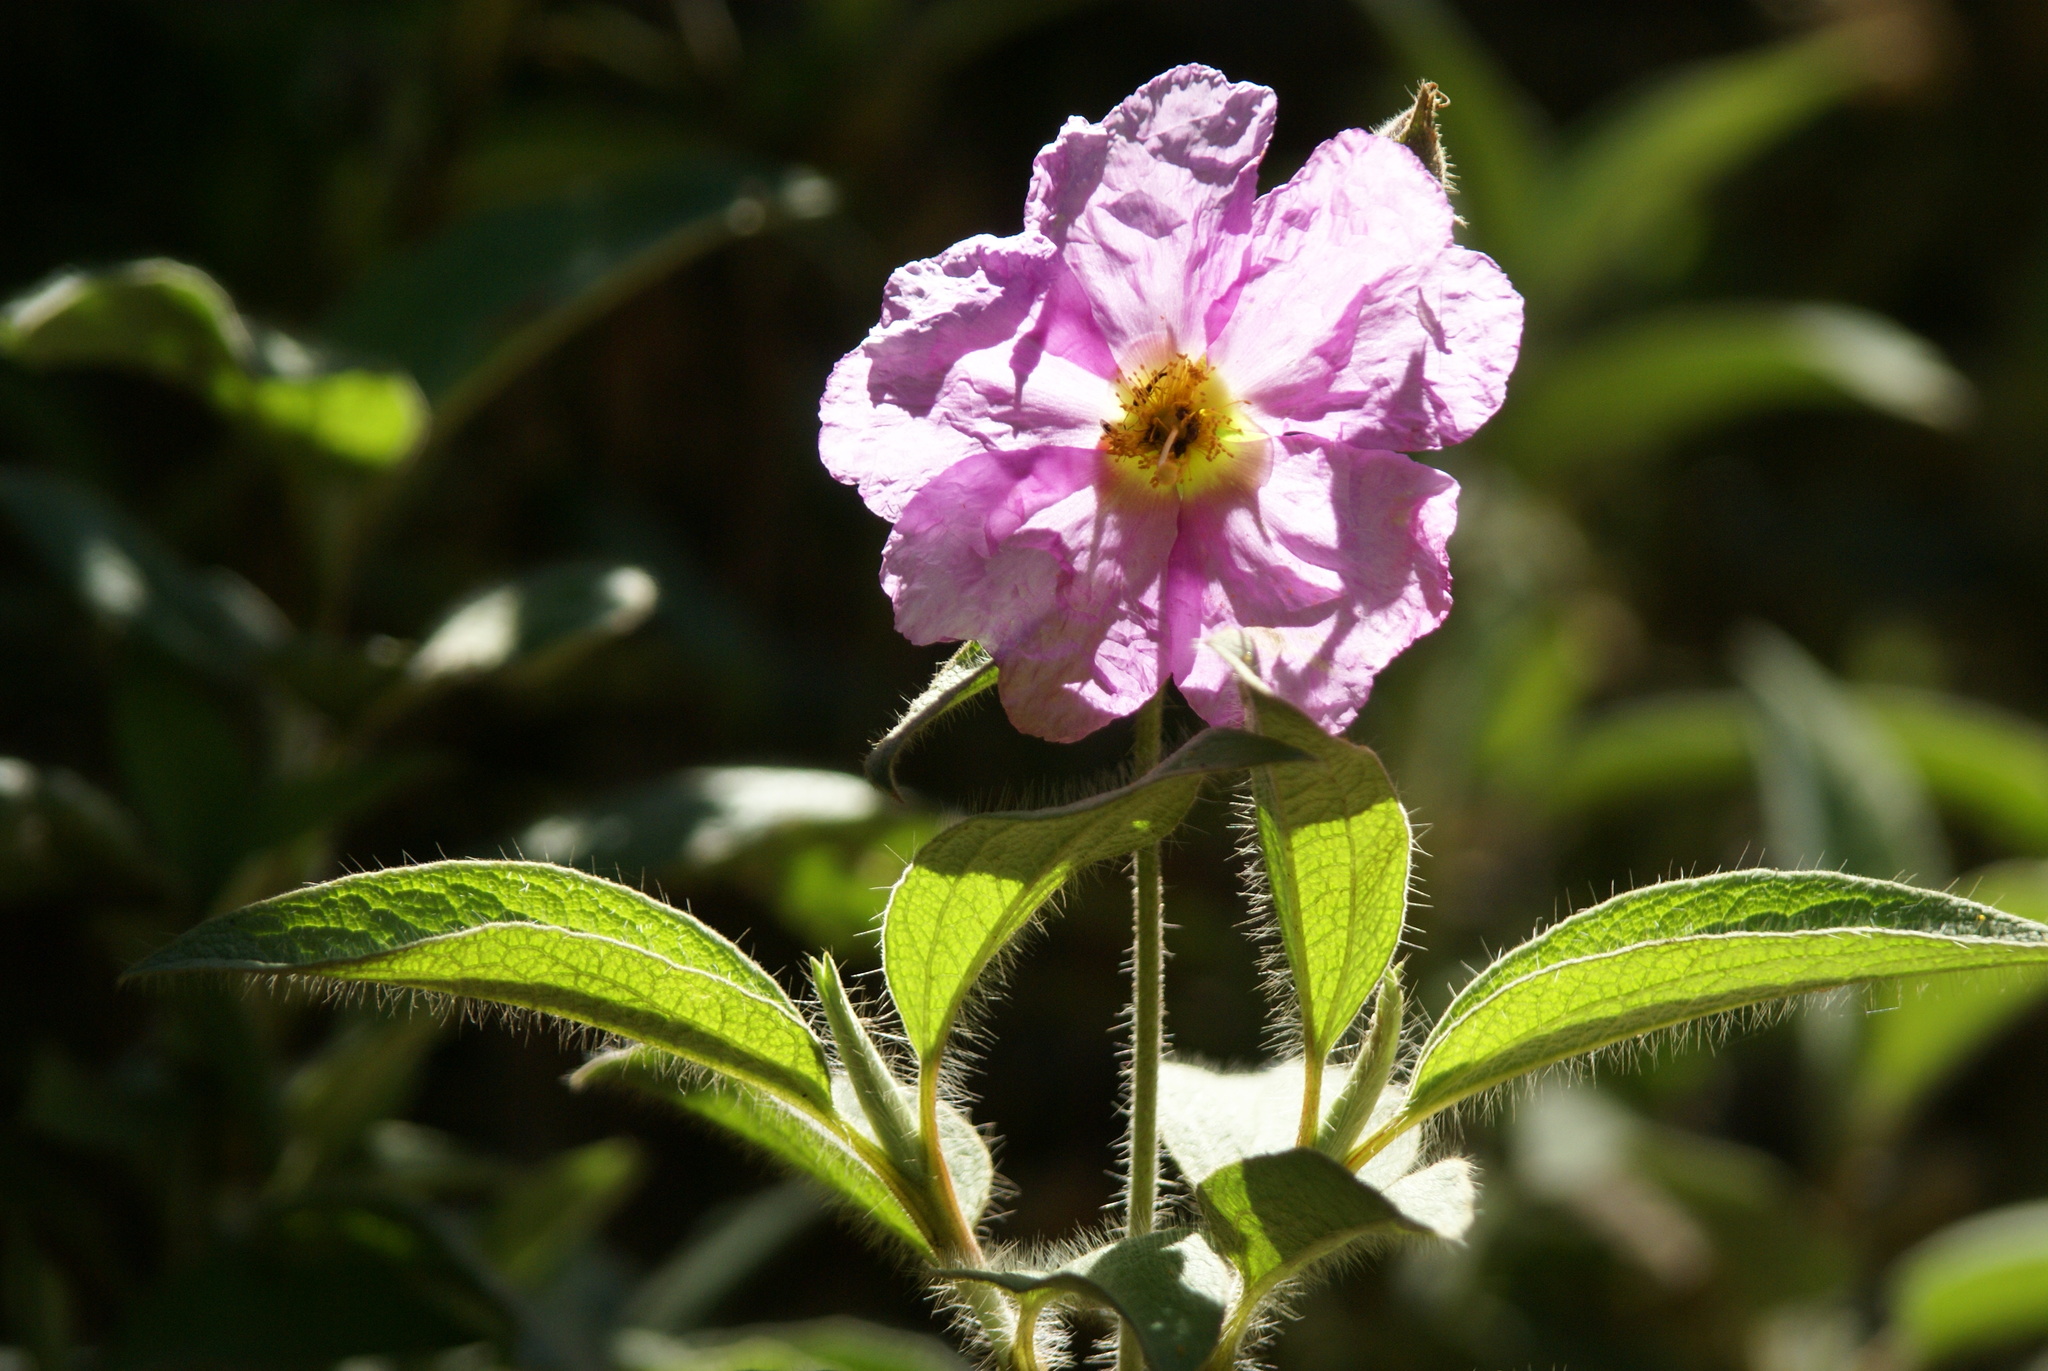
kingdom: Plantae
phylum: Tracheophyta
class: Magnoliopsida
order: Malvales
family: Cistaceae
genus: Cistus
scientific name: Cistus symphytifolius
